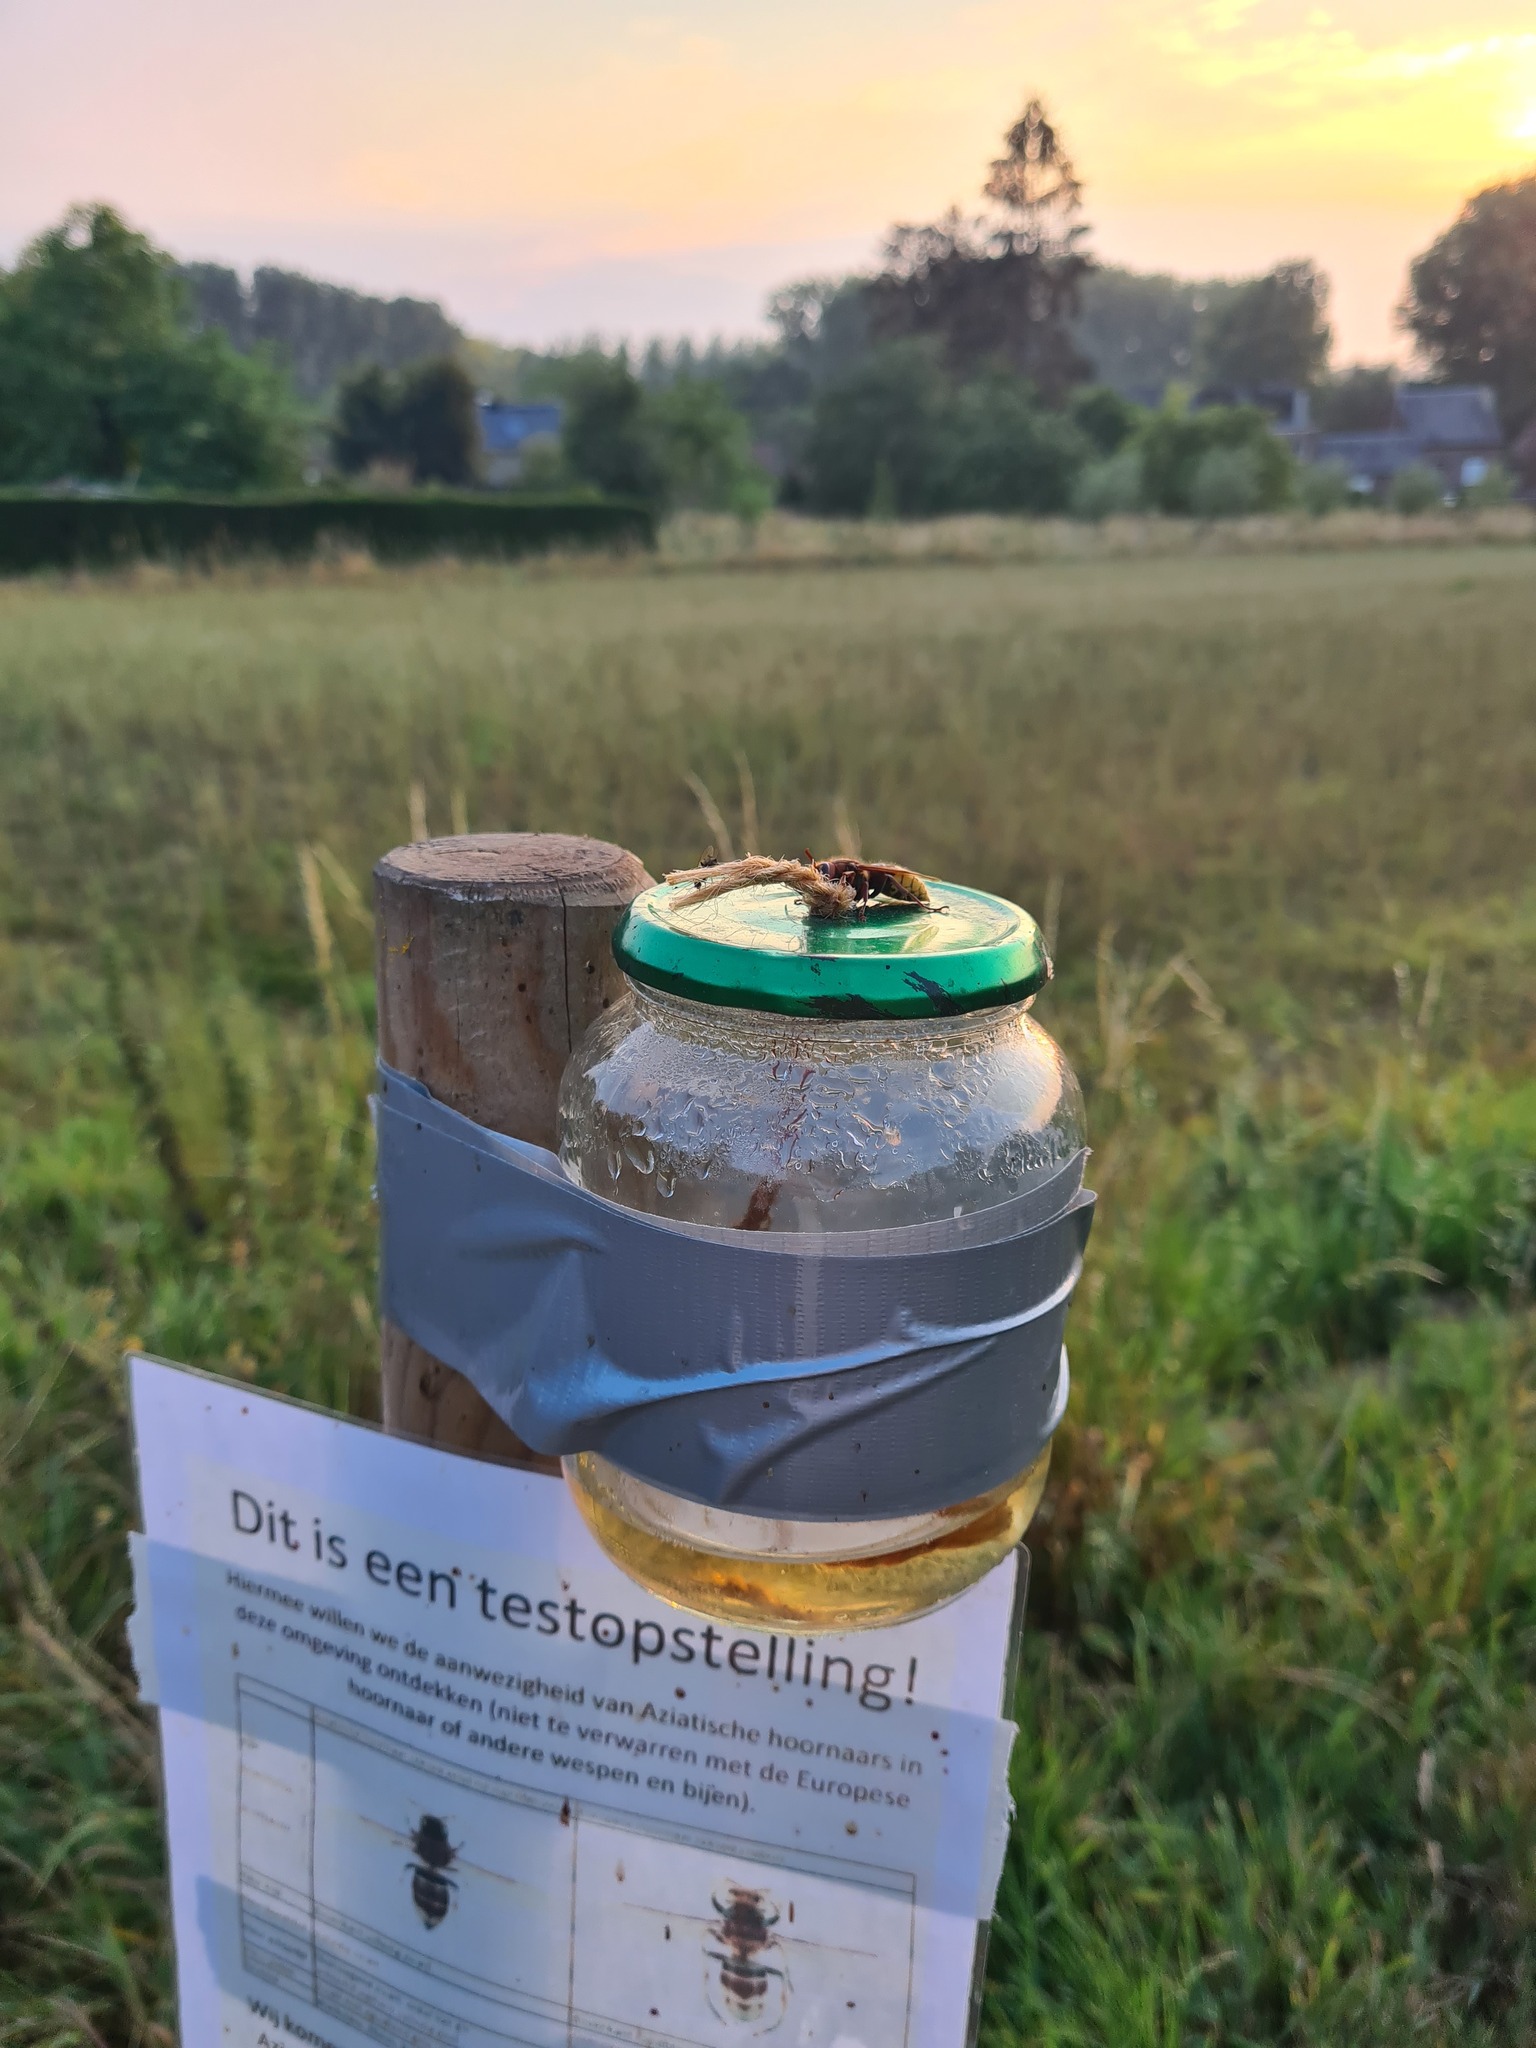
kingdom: Animalia
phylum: Arthropoda
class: Insecta
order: Hymenoptera
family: Vespidae
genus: Vespa
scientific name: Vespa crabro
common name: Hornet
